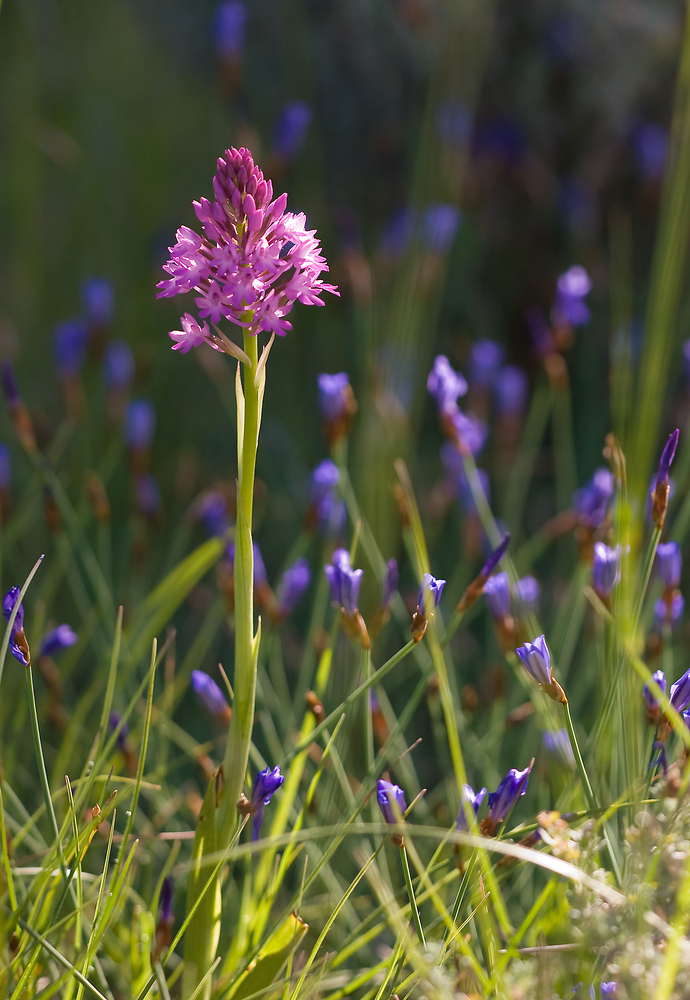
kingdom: Plantae
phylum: Tracheophyta
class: Liliopsida
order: Asparagales
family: Orchidaceae
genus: Anacamptis
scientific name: Anacamptis pyramidalis
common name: Pyramidal orchid
